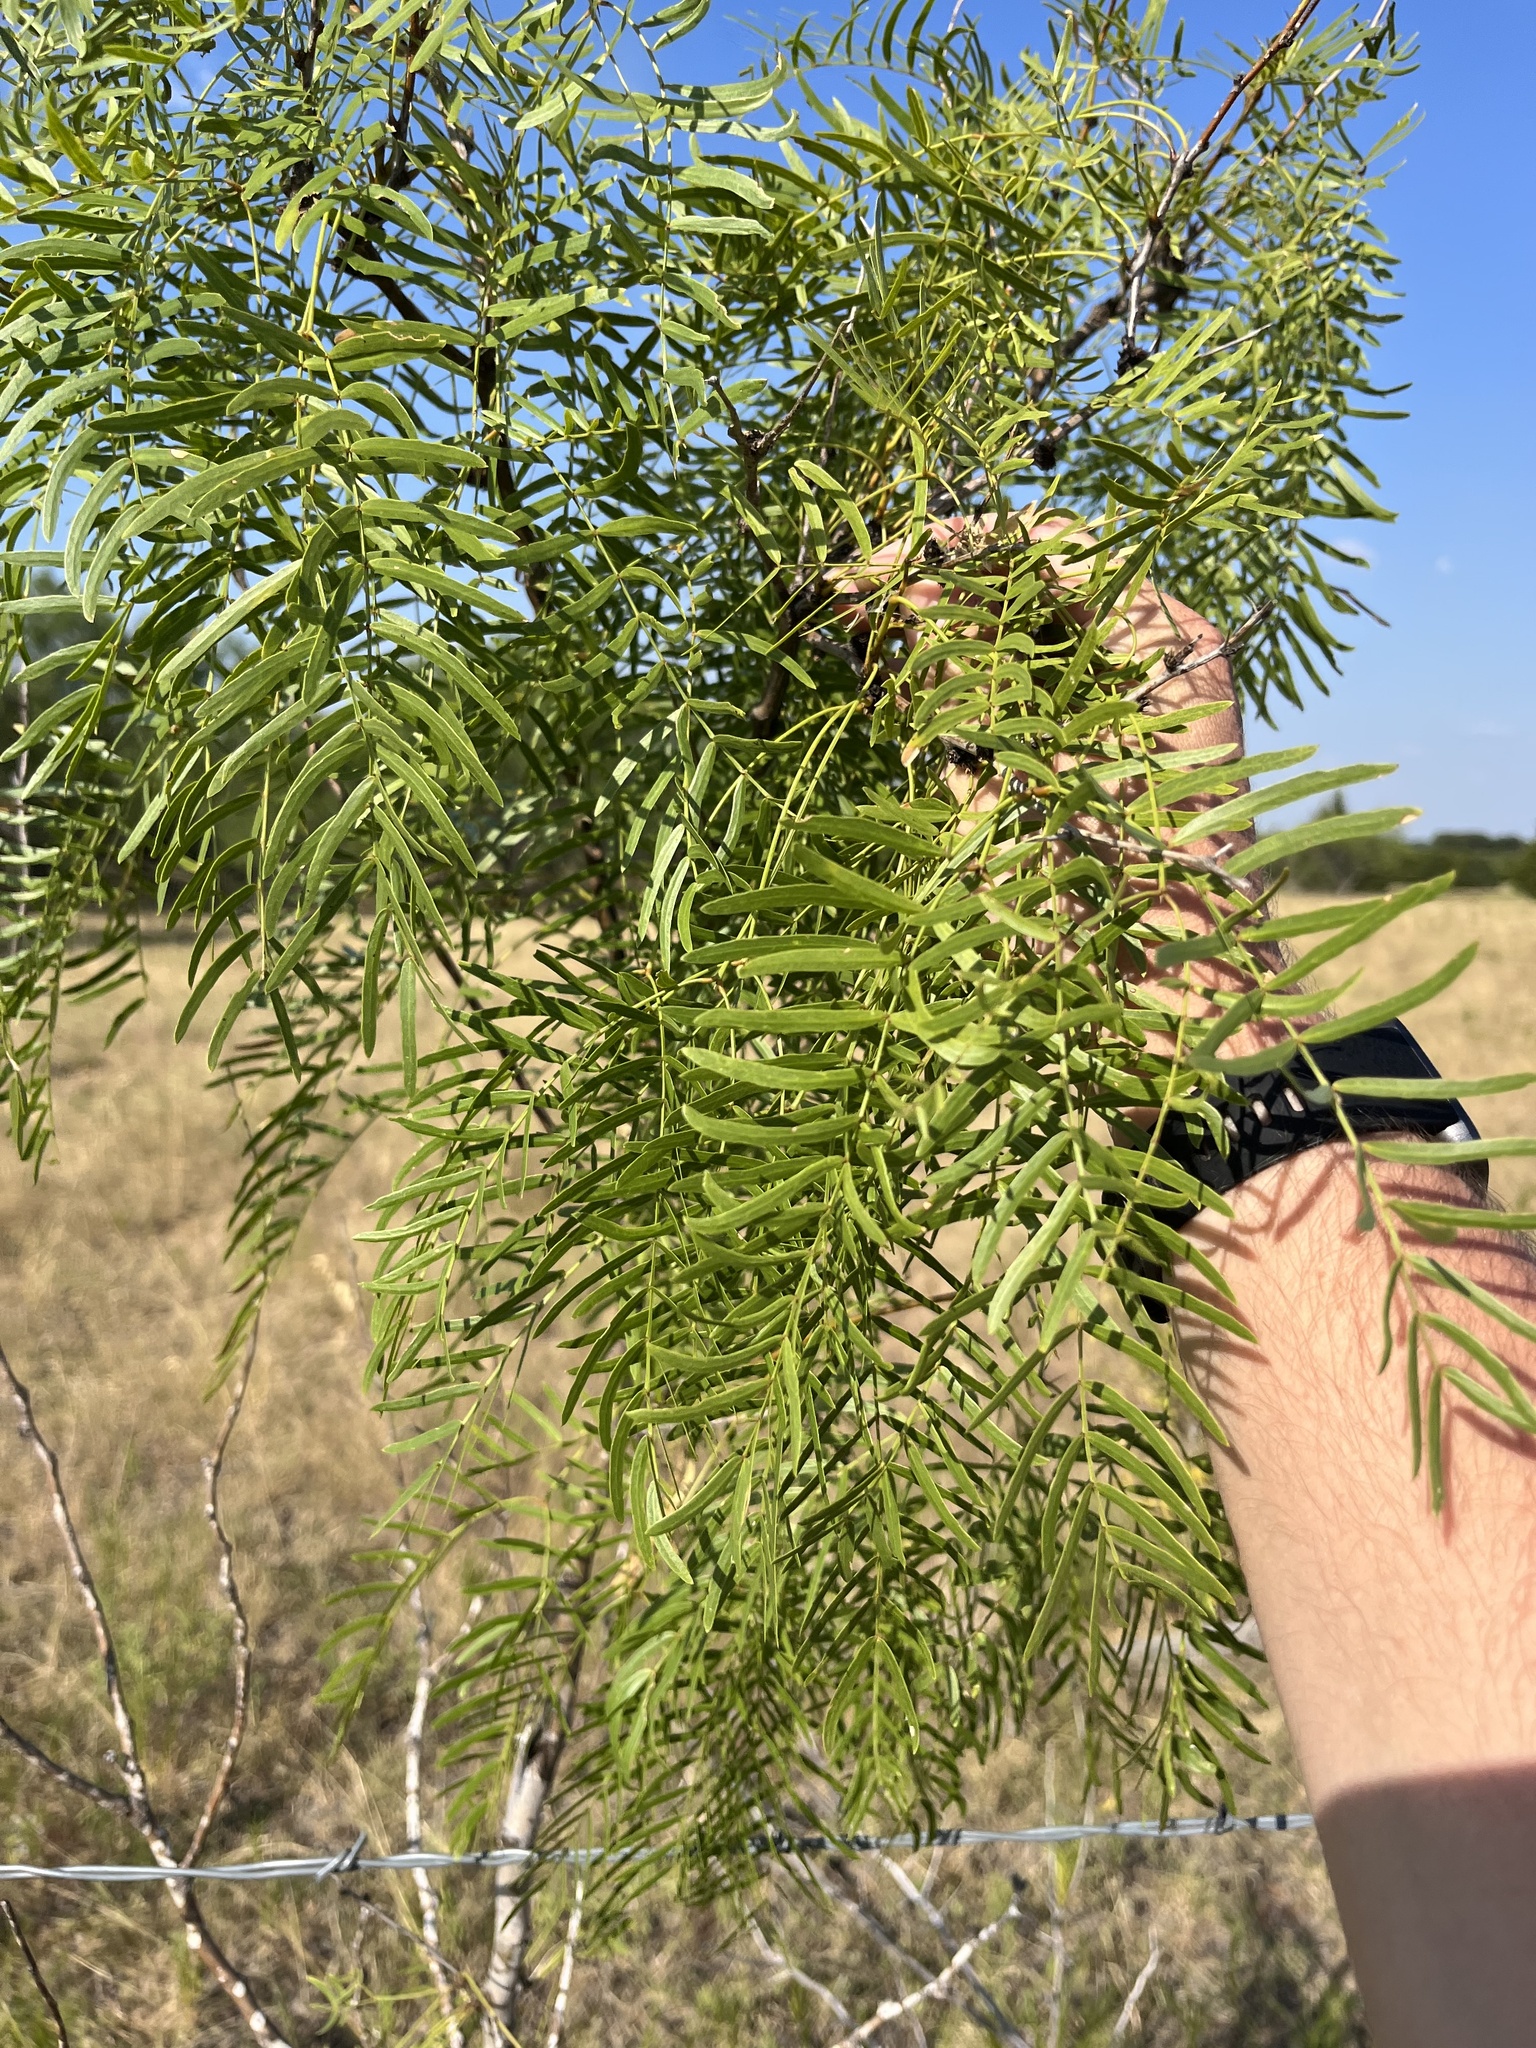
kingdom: Plantae
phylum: Tracheophyta
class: Magnoliopsida
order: Fabales
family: Fabaceae
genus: Prosopis
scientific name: Prosopis glandulosa
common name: Honey mesquite
